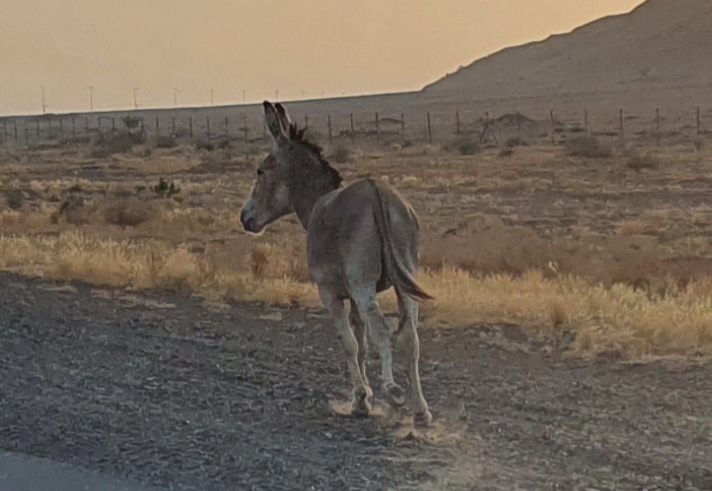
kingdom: Animalia
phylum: Chordata
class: Mammalia
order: Perissodactyla
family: Equidae
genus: Equus
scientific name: Equus asinus
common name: Ass
